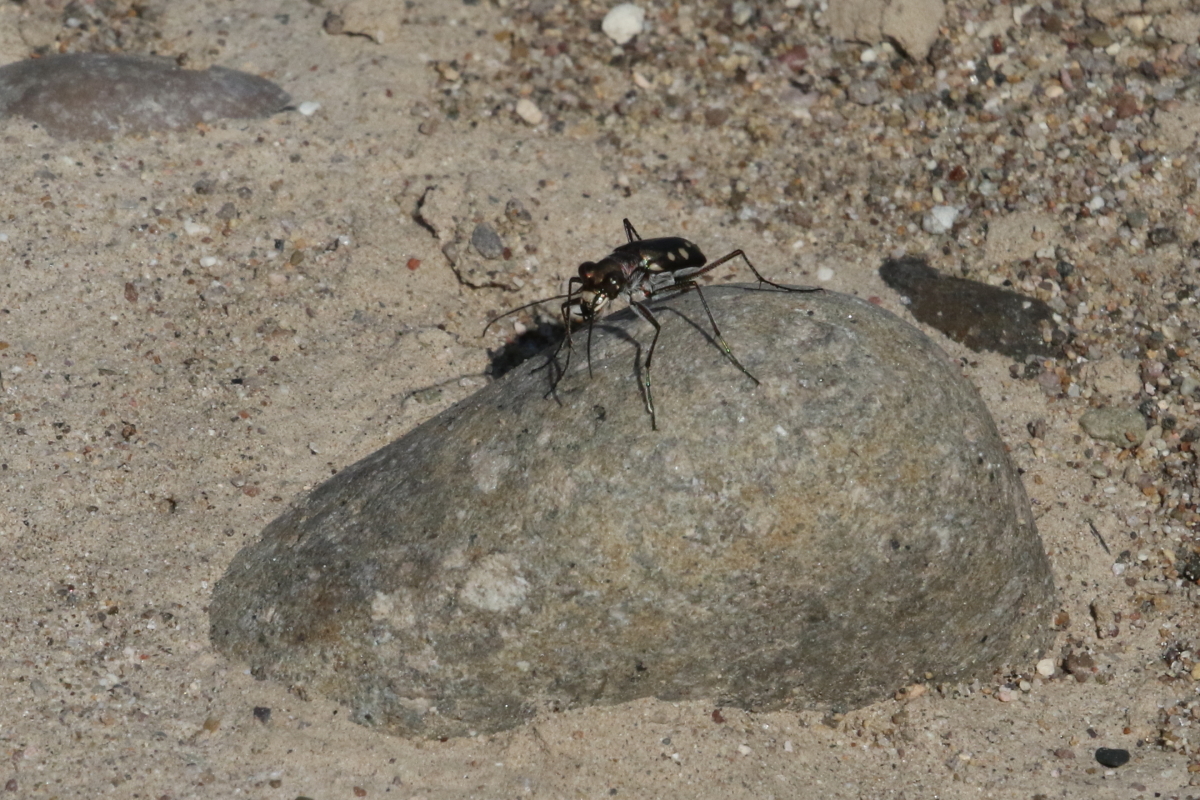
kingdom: Animalia
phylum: Arthropoda
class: Insecta
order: Coleoptera
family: Carabidae
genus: Cicindela
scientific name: Cicindela ocellata
